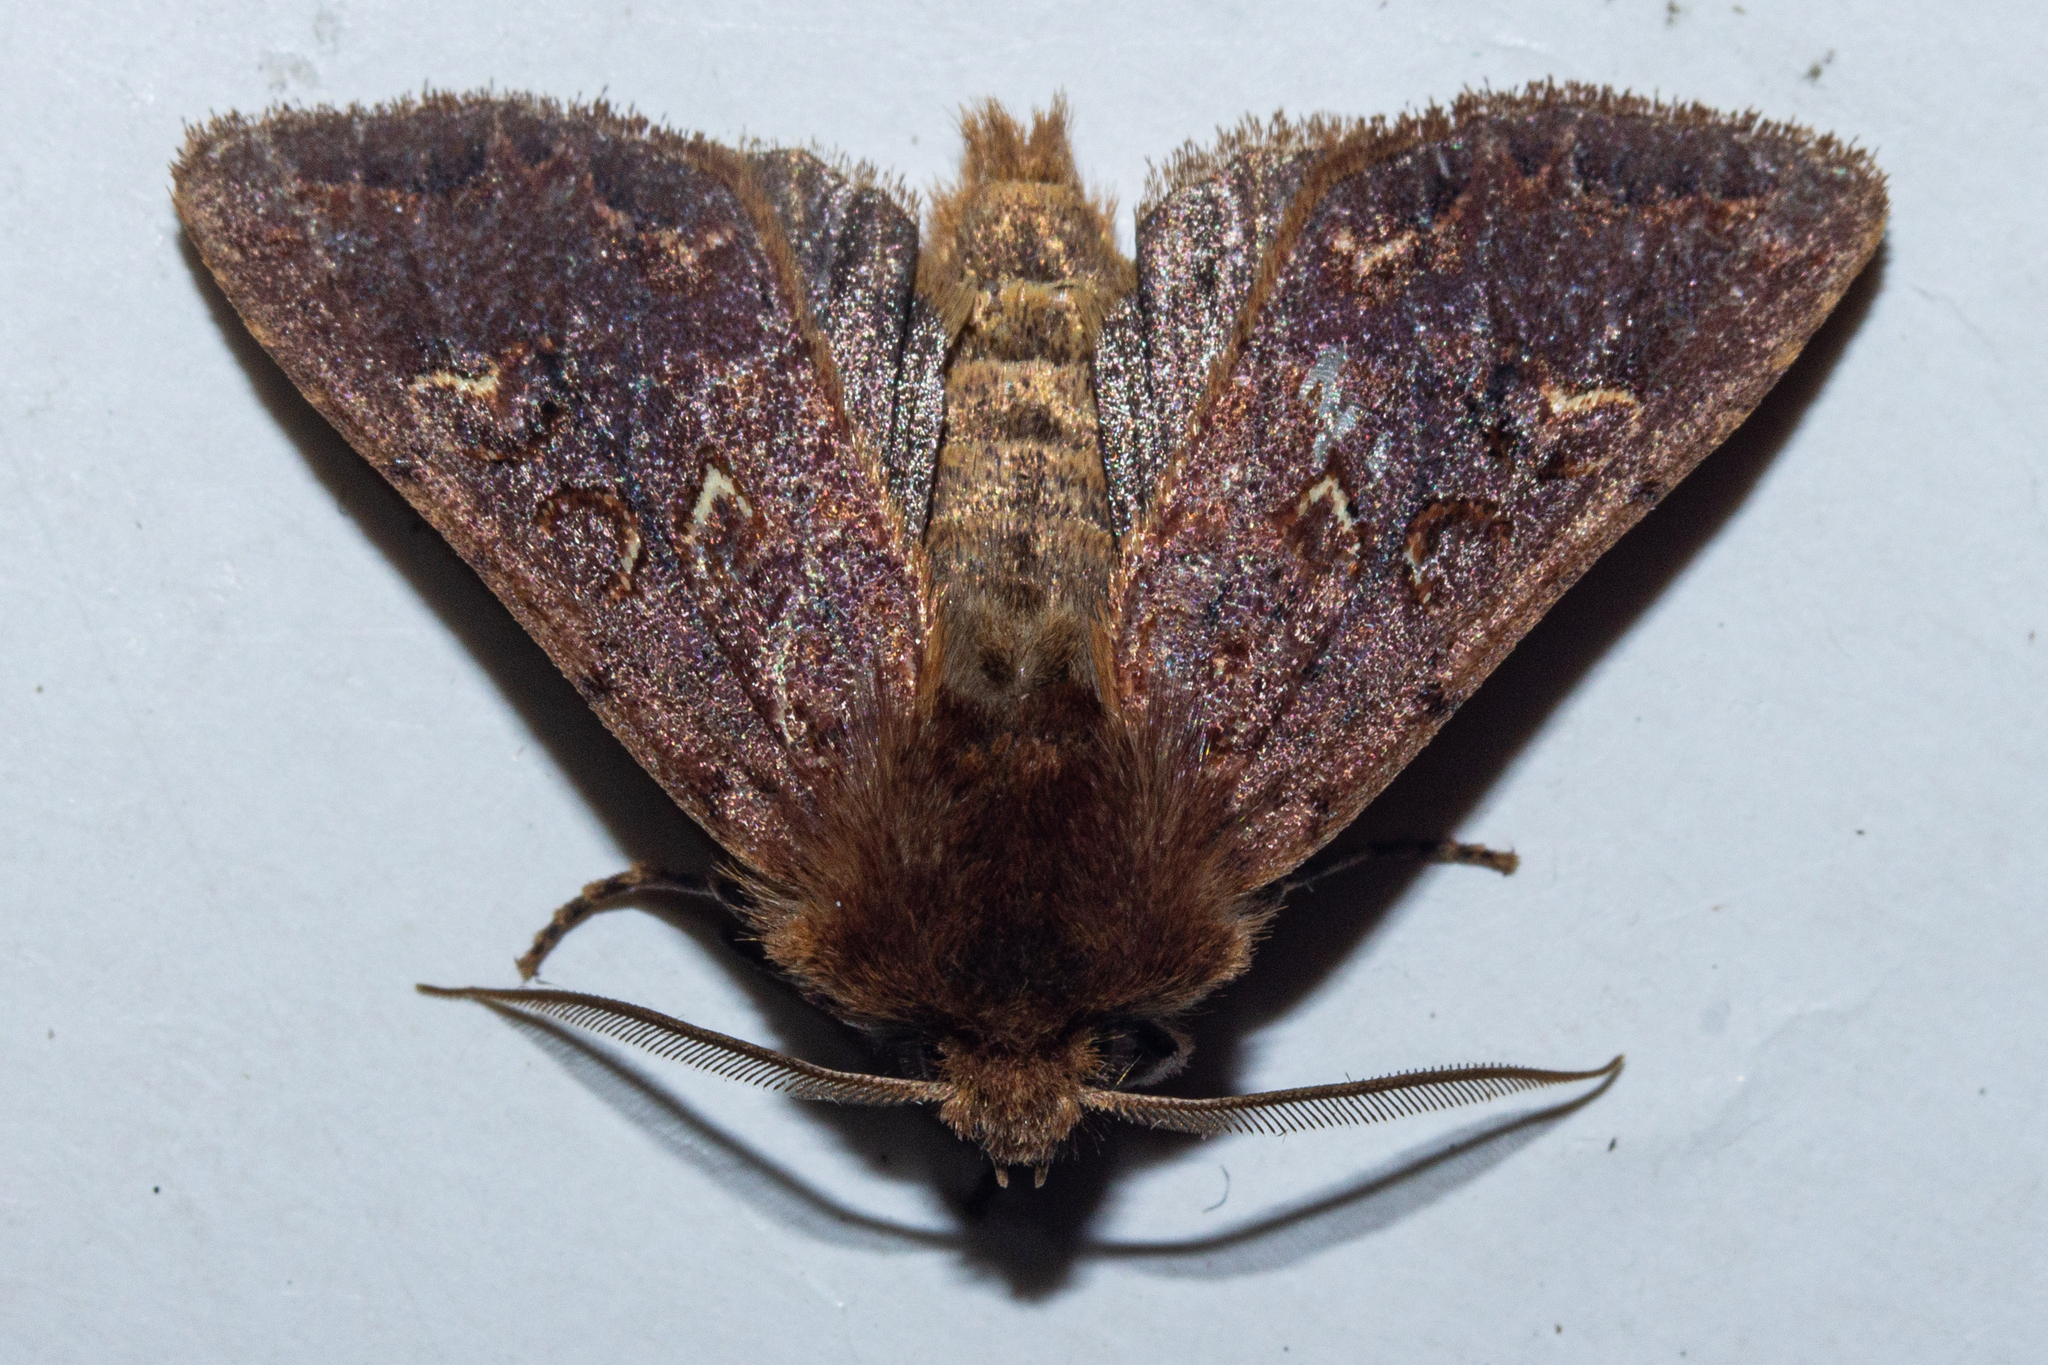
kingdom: Animalia
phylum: Arthropoda
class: Insecta
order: Lepidoptera
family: Noctuidae
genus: Ichneutica
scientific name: Ichneutica
